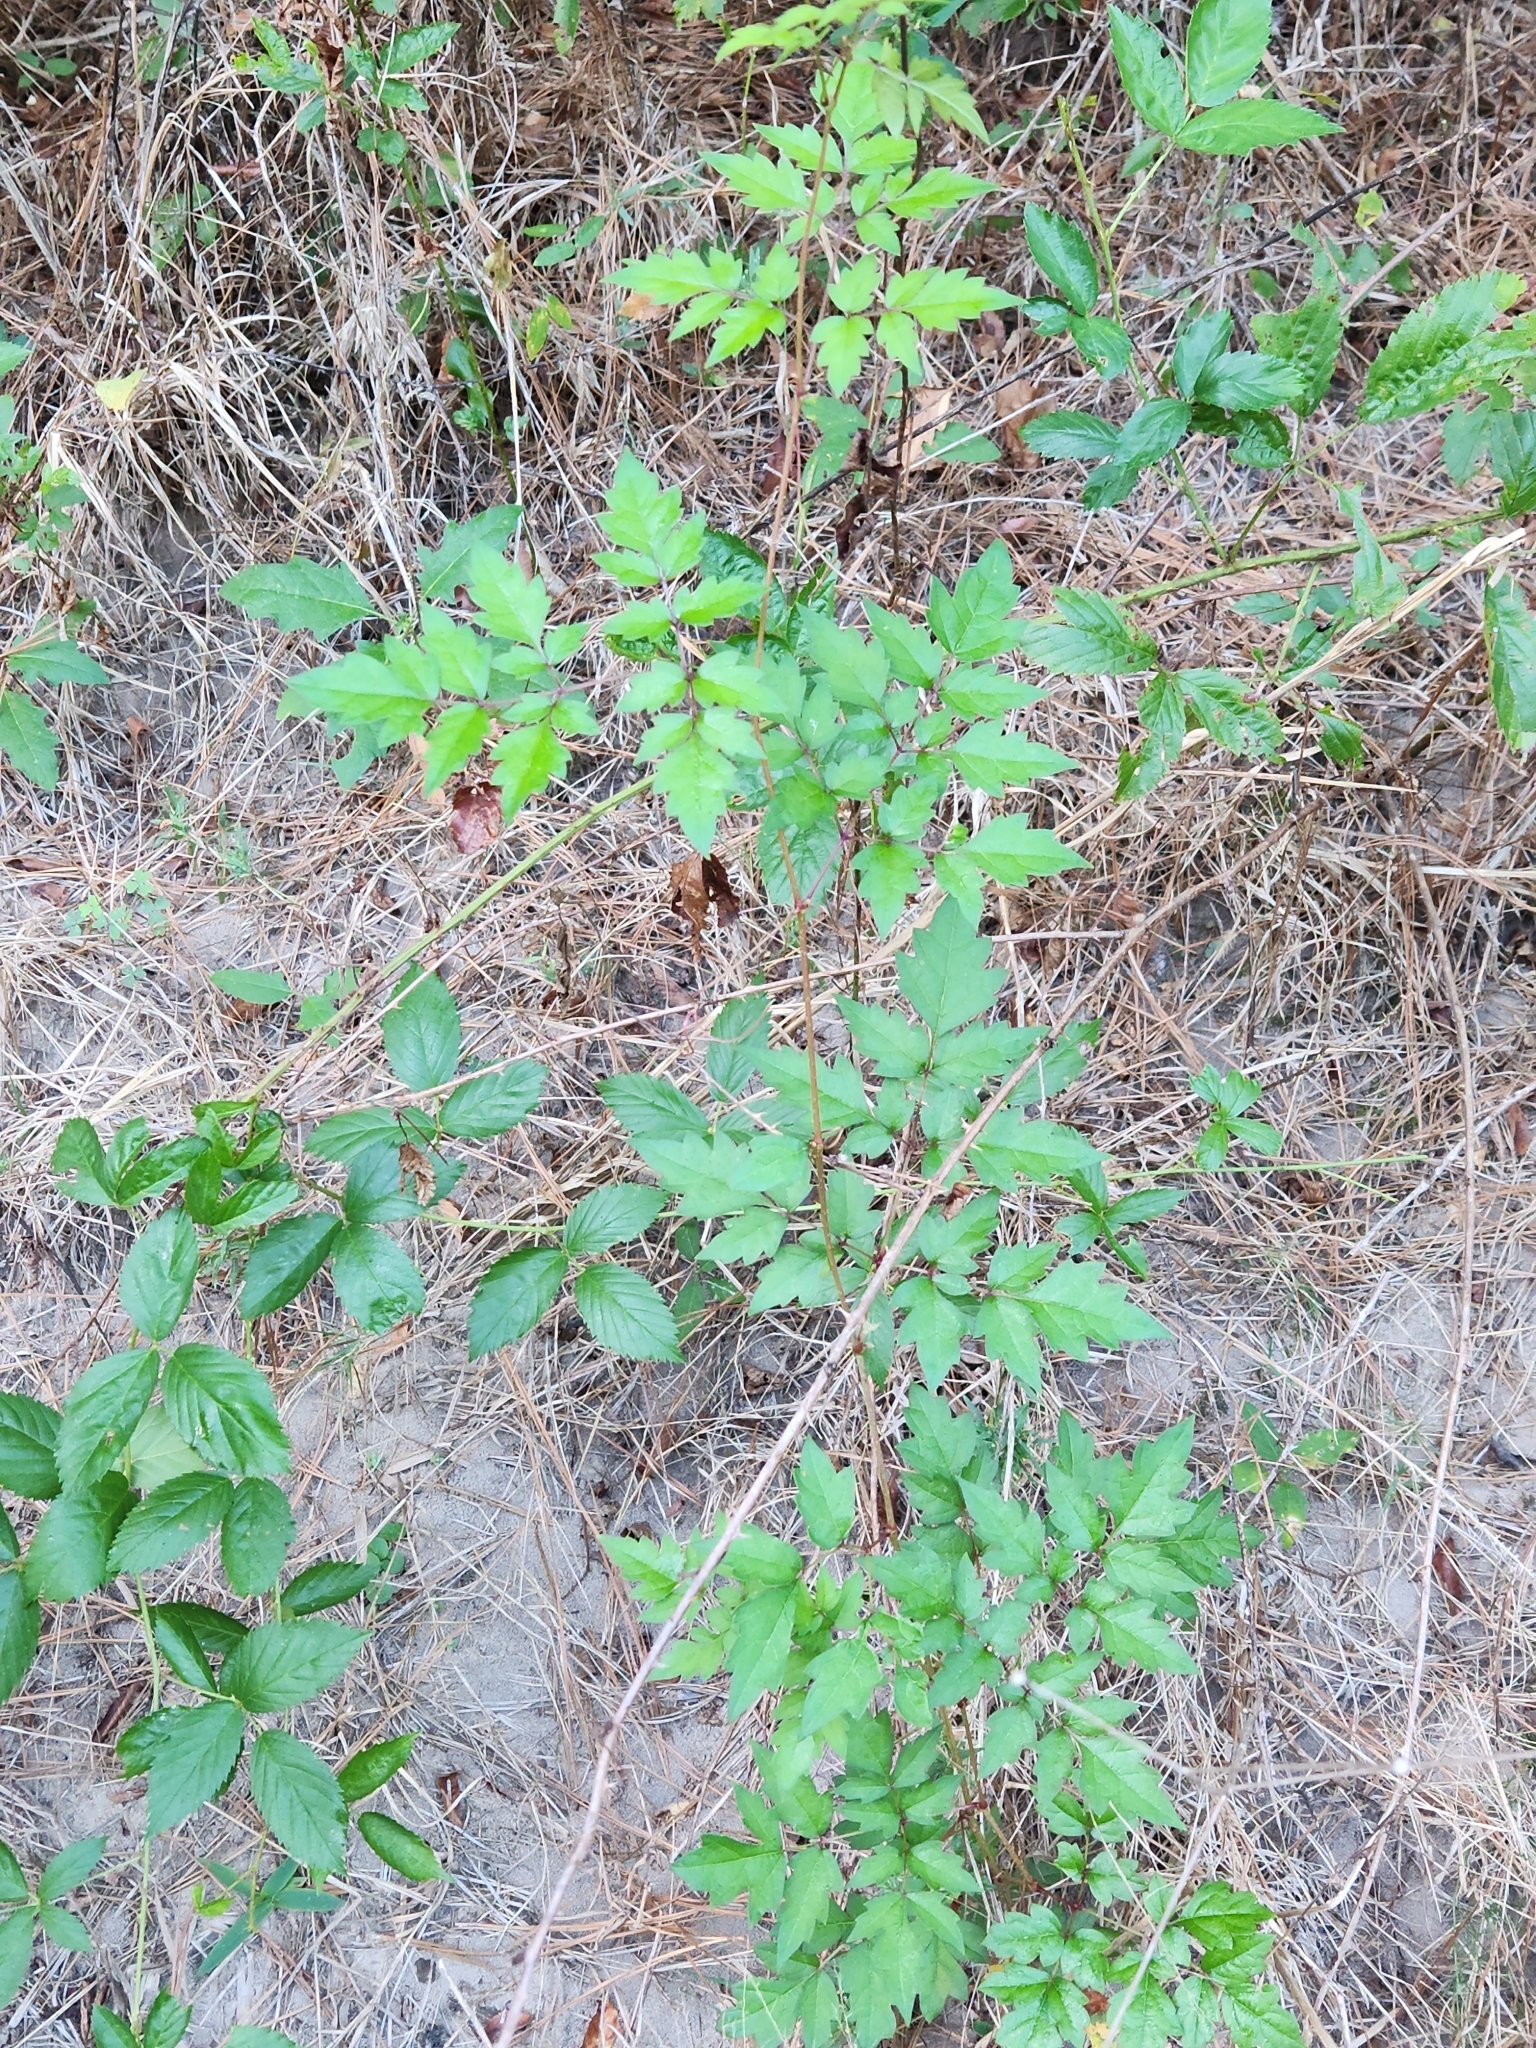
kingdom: Plantae
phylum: Tracheophyta
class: Magnoliopsida
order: Vitales
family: Vitaceae
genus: Nekemias
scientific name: Nekemias arborea
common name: Peppervine
